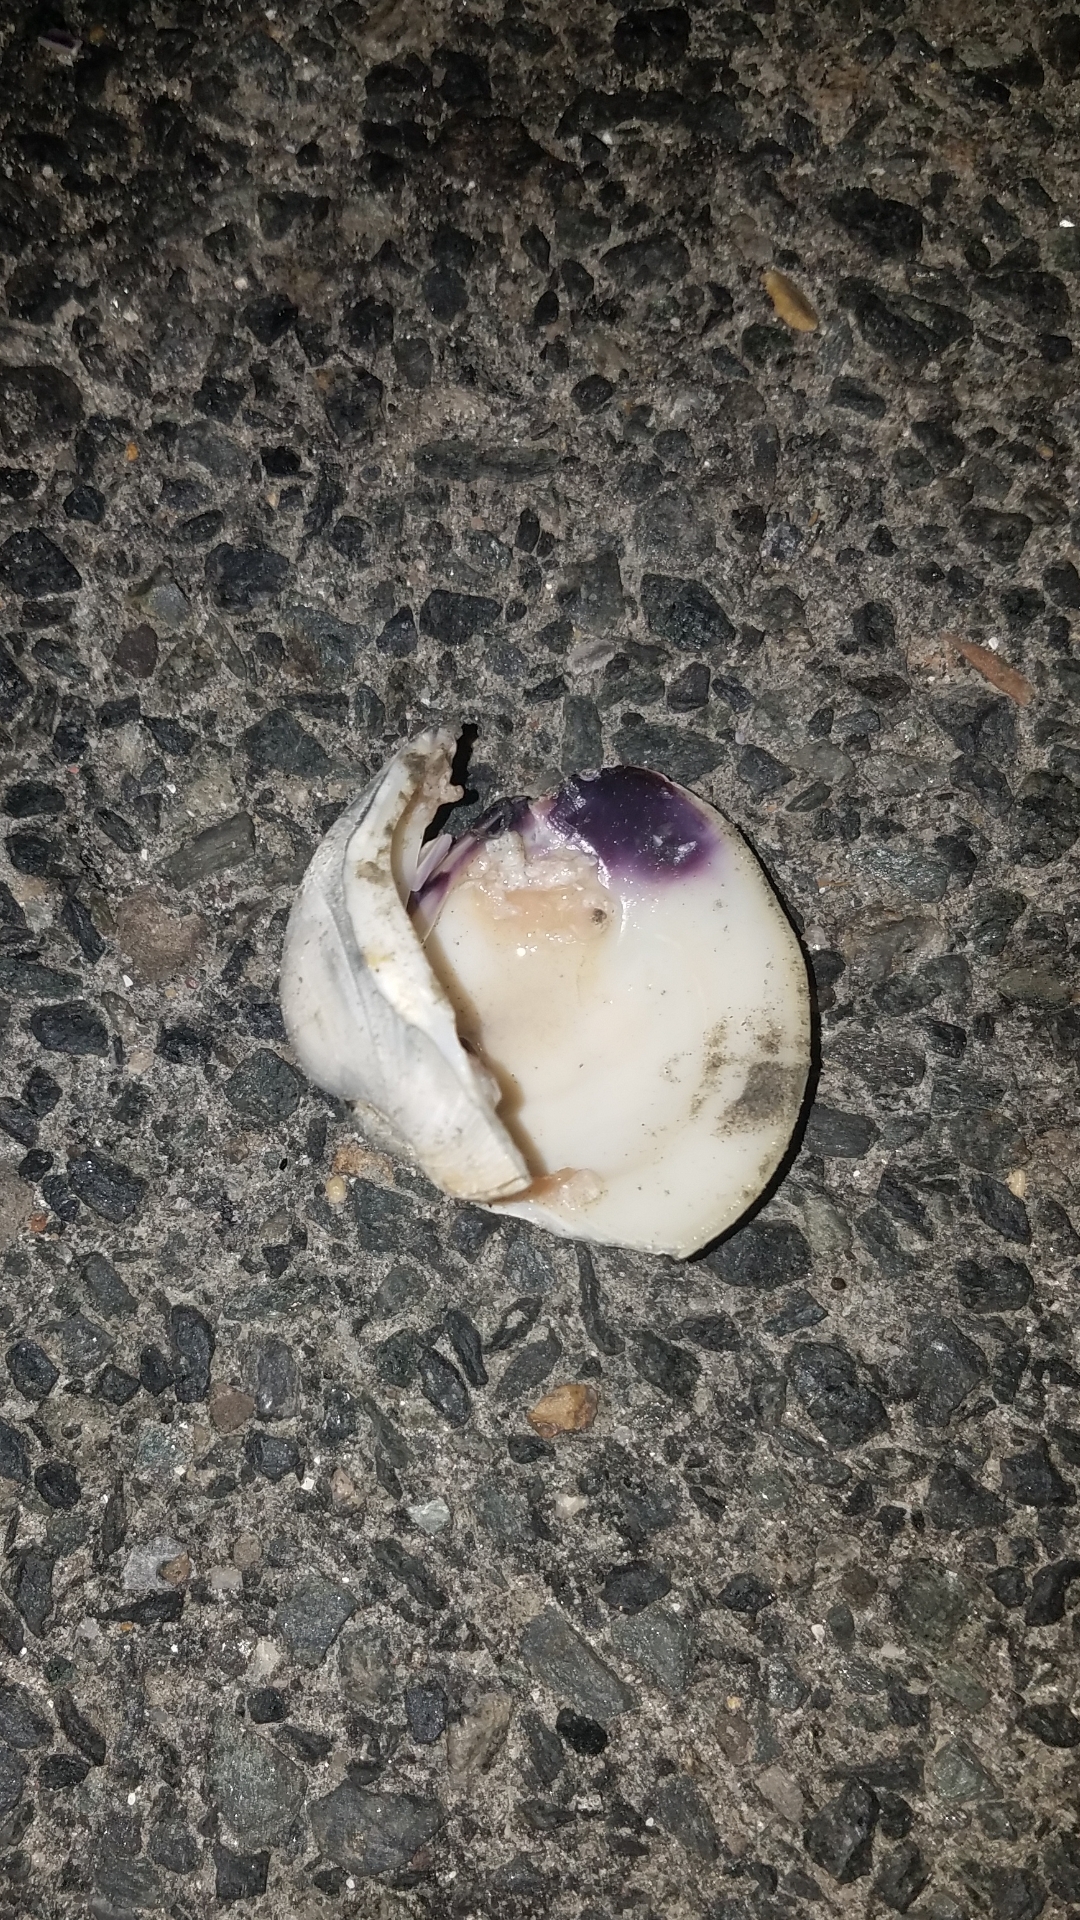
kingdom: Animalia
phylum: Mollusca
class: Bivalvia
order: Venerida
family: Veneridae
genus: Mercenaria
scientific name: Mercenaria mercenaria
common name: American hard-shelled clam
